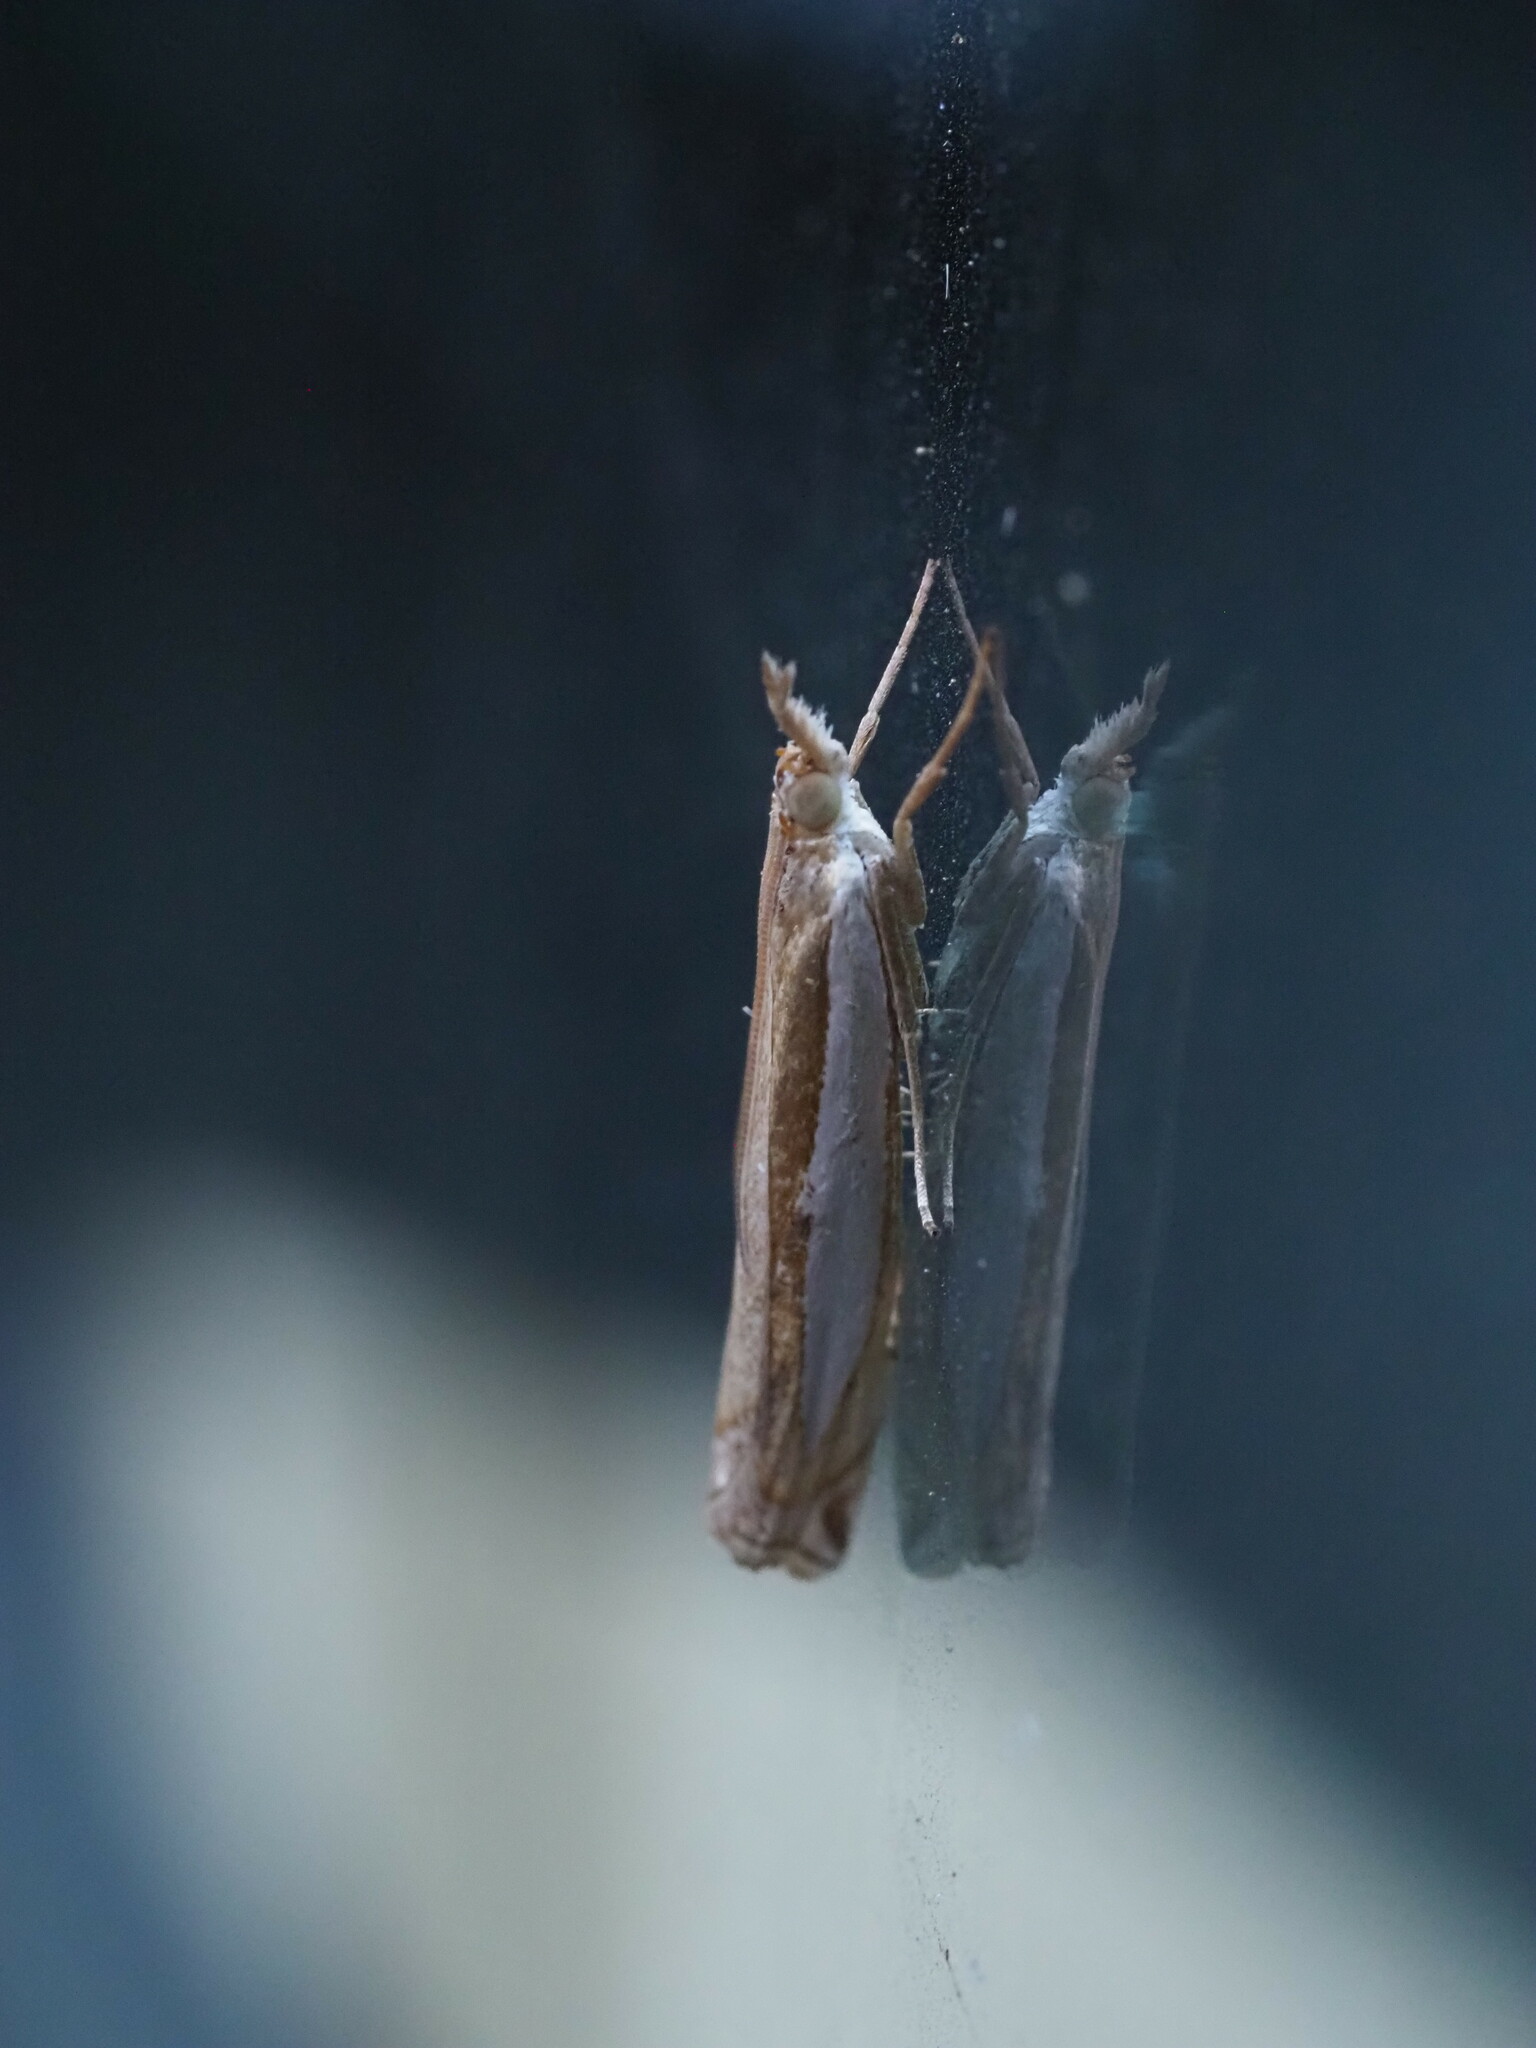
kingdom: Animalia
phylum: Arthropoda
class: Insecta
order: Lepidoptera
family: Crambidae
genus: Crambus
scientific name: Crambus leachellus
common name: Leach's grass-veneer
